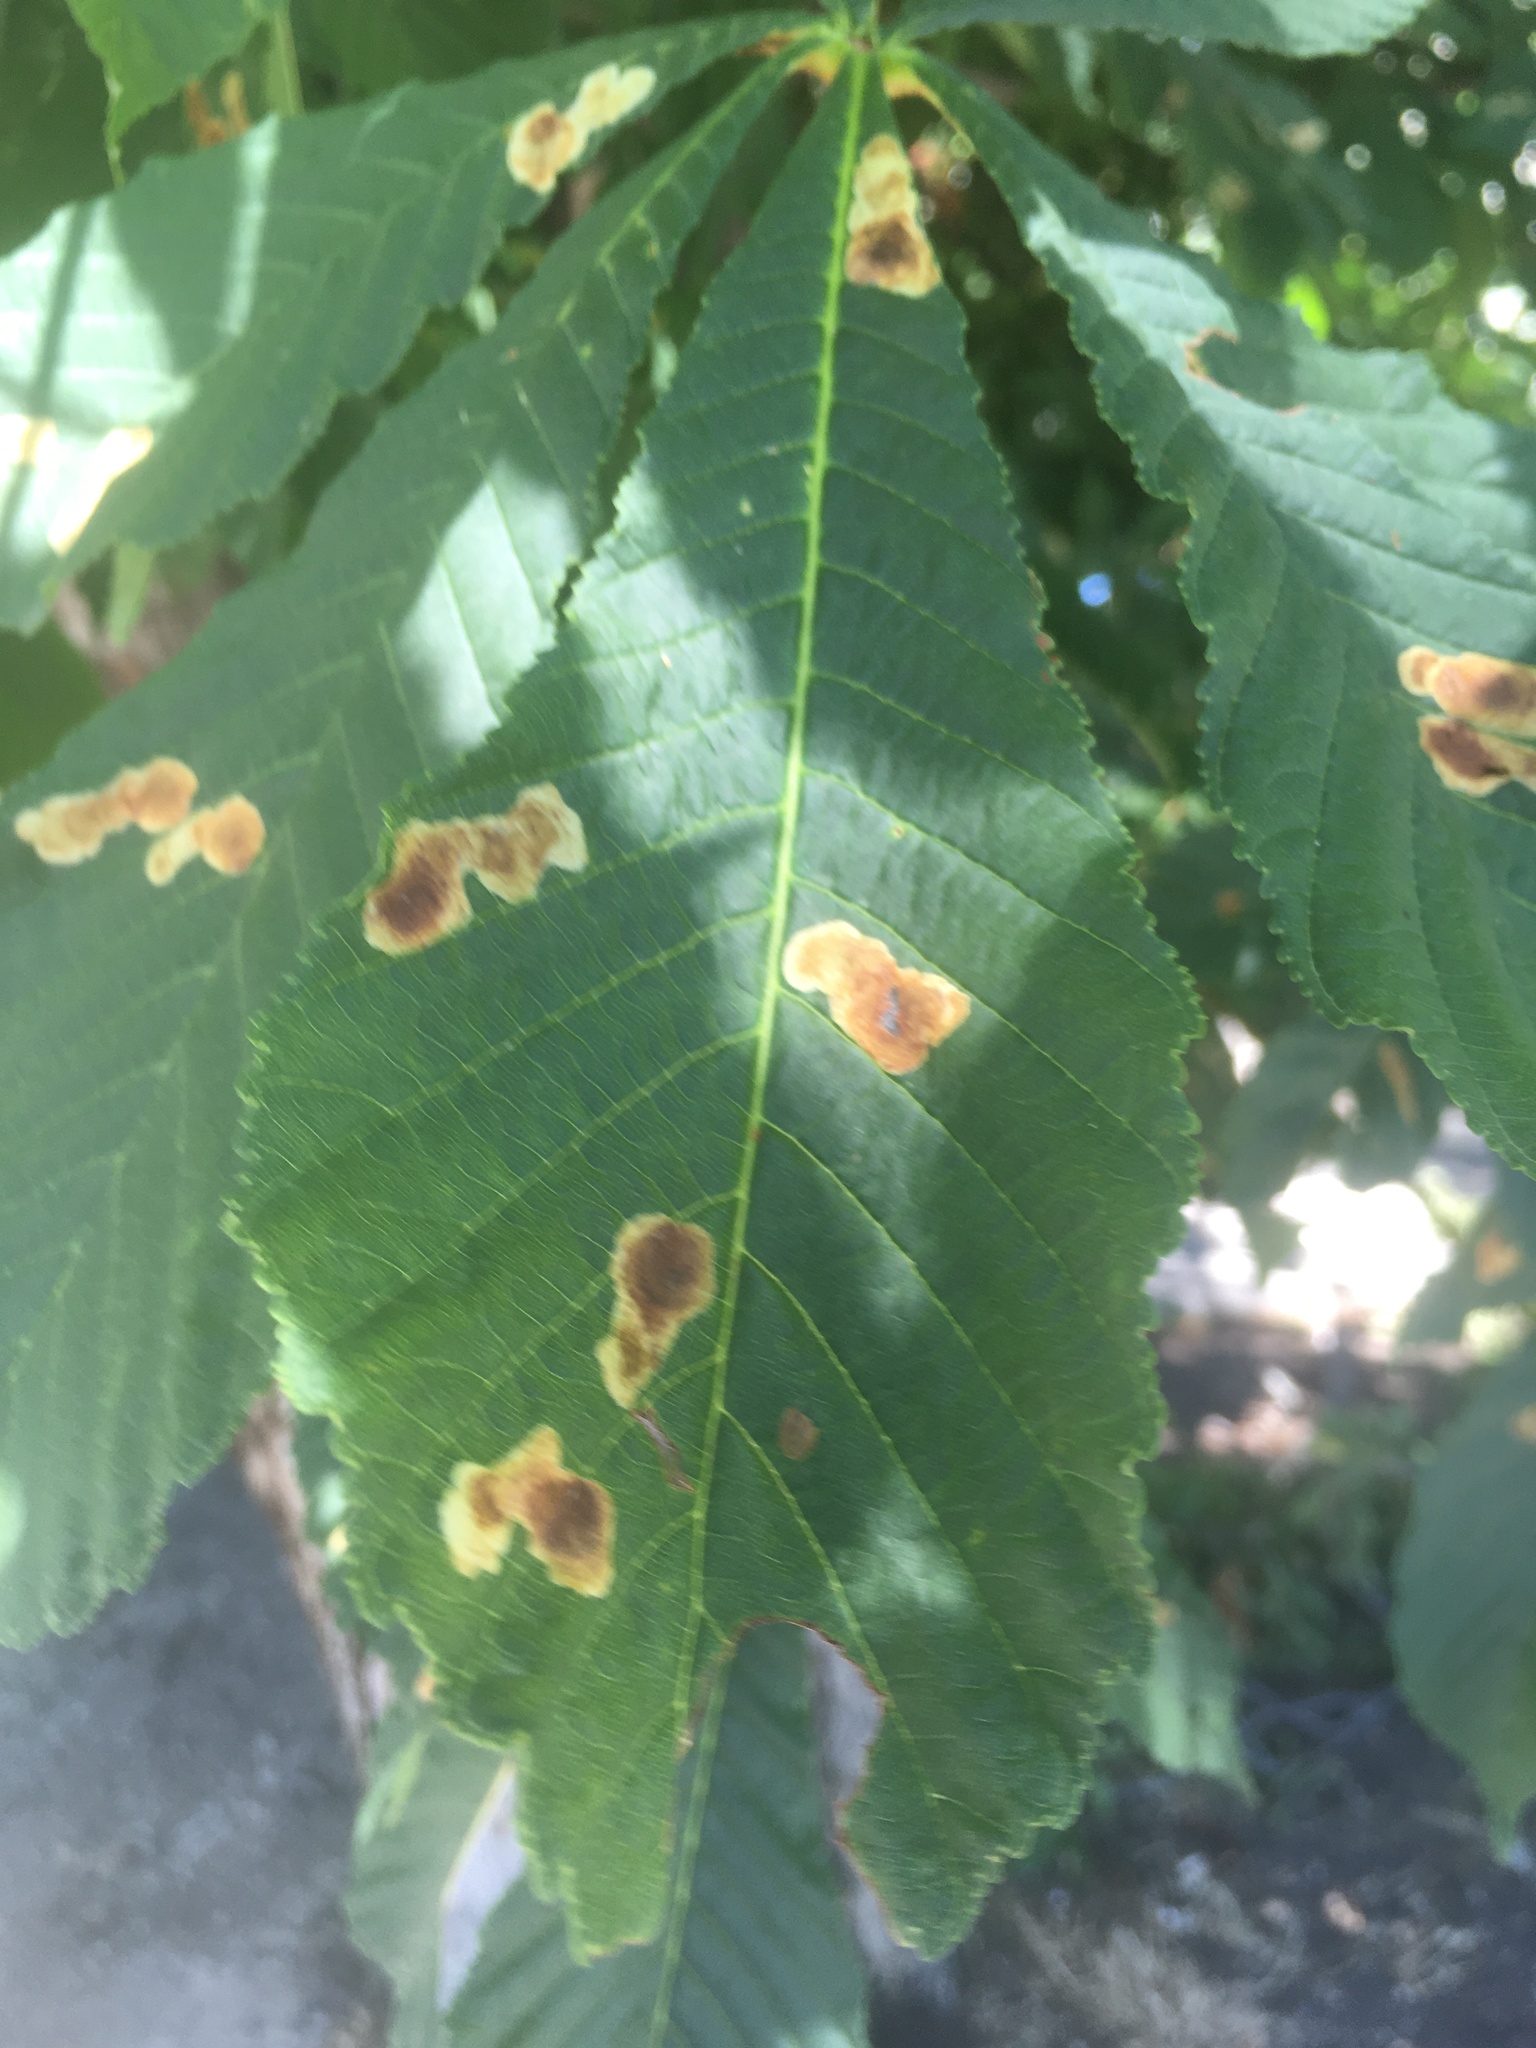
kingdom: Animalia
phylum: Arthropoda
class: Insecta
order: Lepidoptera
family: Gracillariidae
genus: Cameraria
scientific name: Cameraria ohridella
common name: Horse-chestnut leaf-miner
